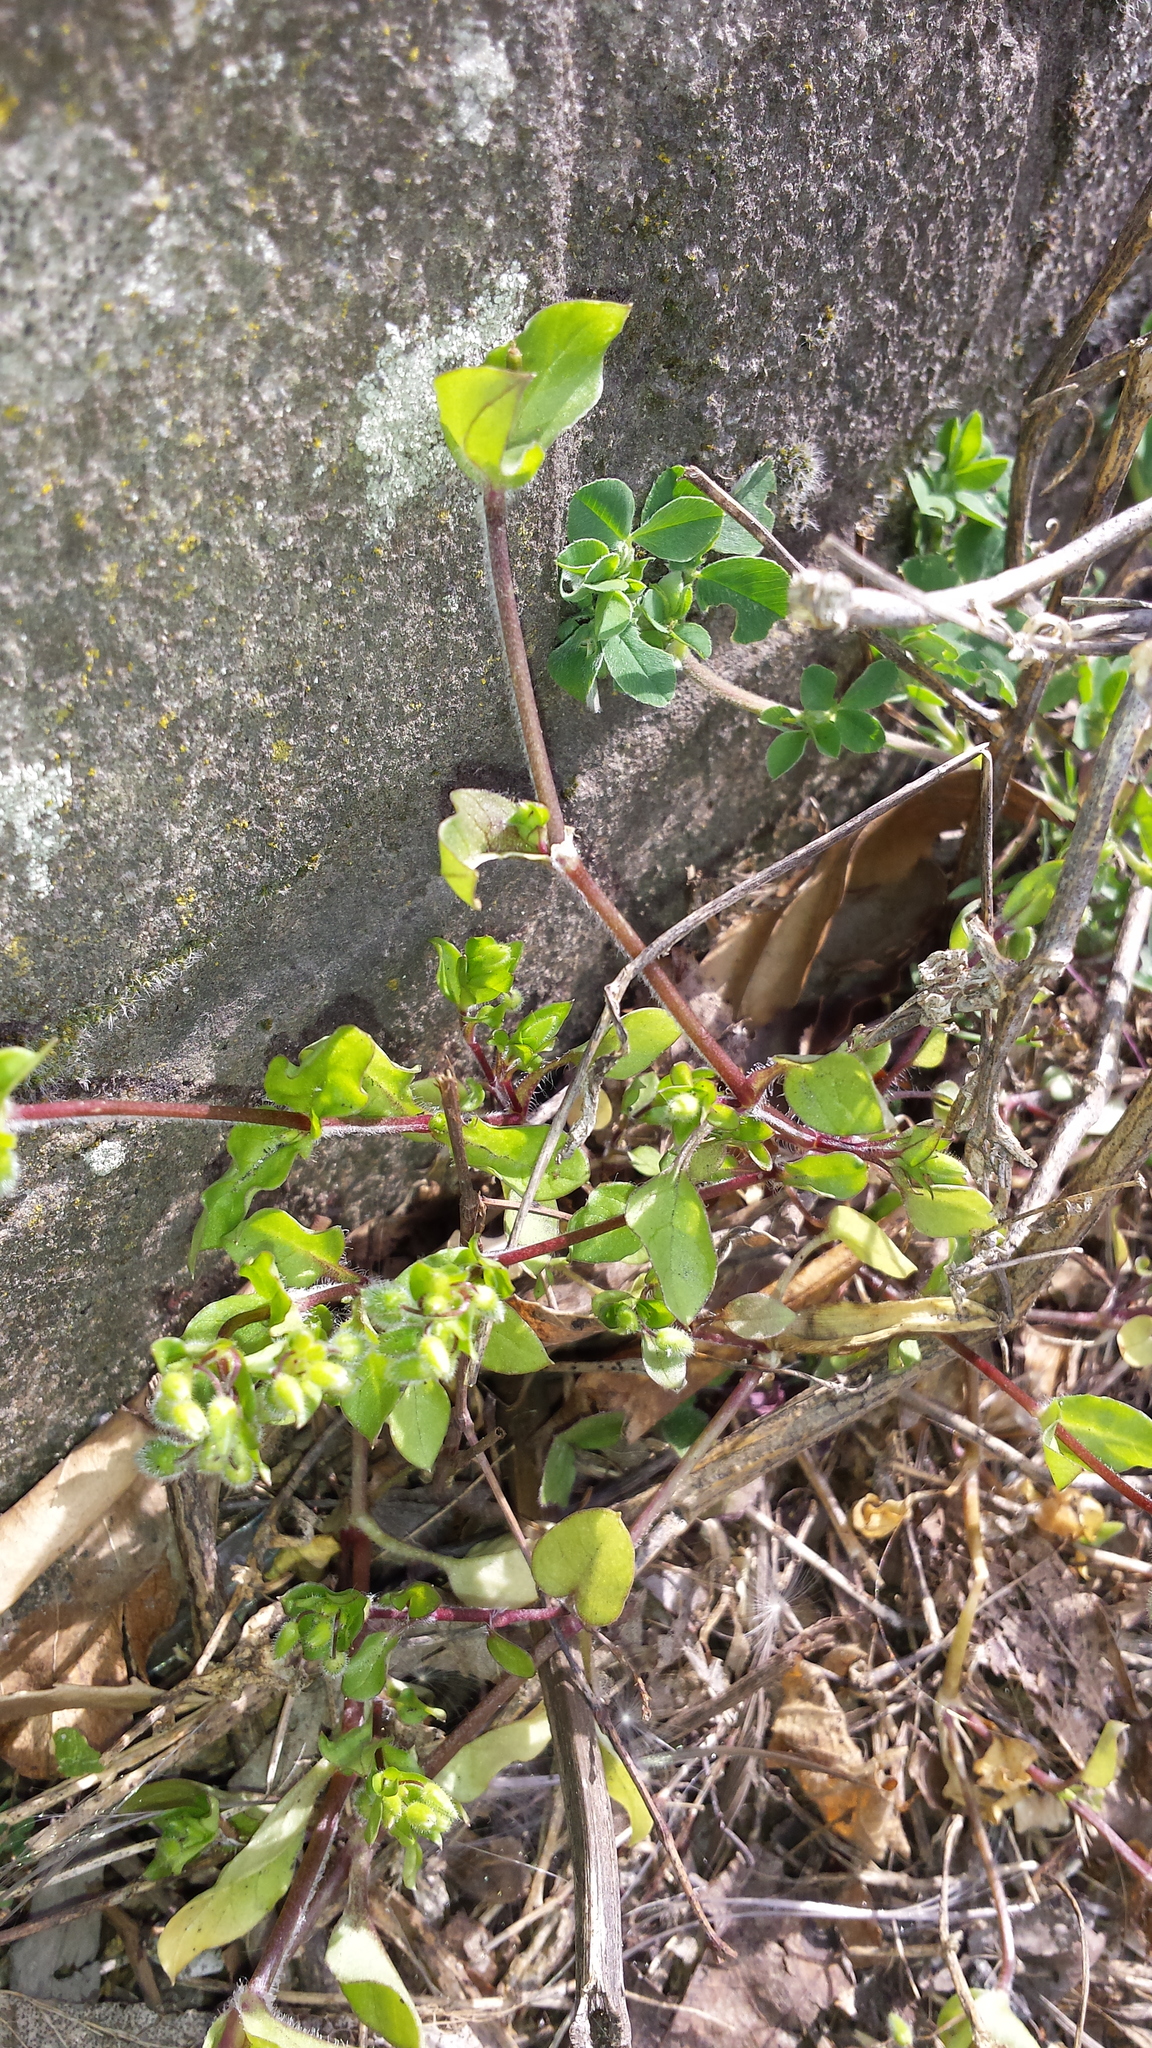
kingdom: Plantae
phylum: Tracheophyta
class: Magnoliopsida
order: Caryophyllales
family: Caryophyllaceae
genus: Stellaria
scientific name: Stellaria media
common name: Common chickweed
